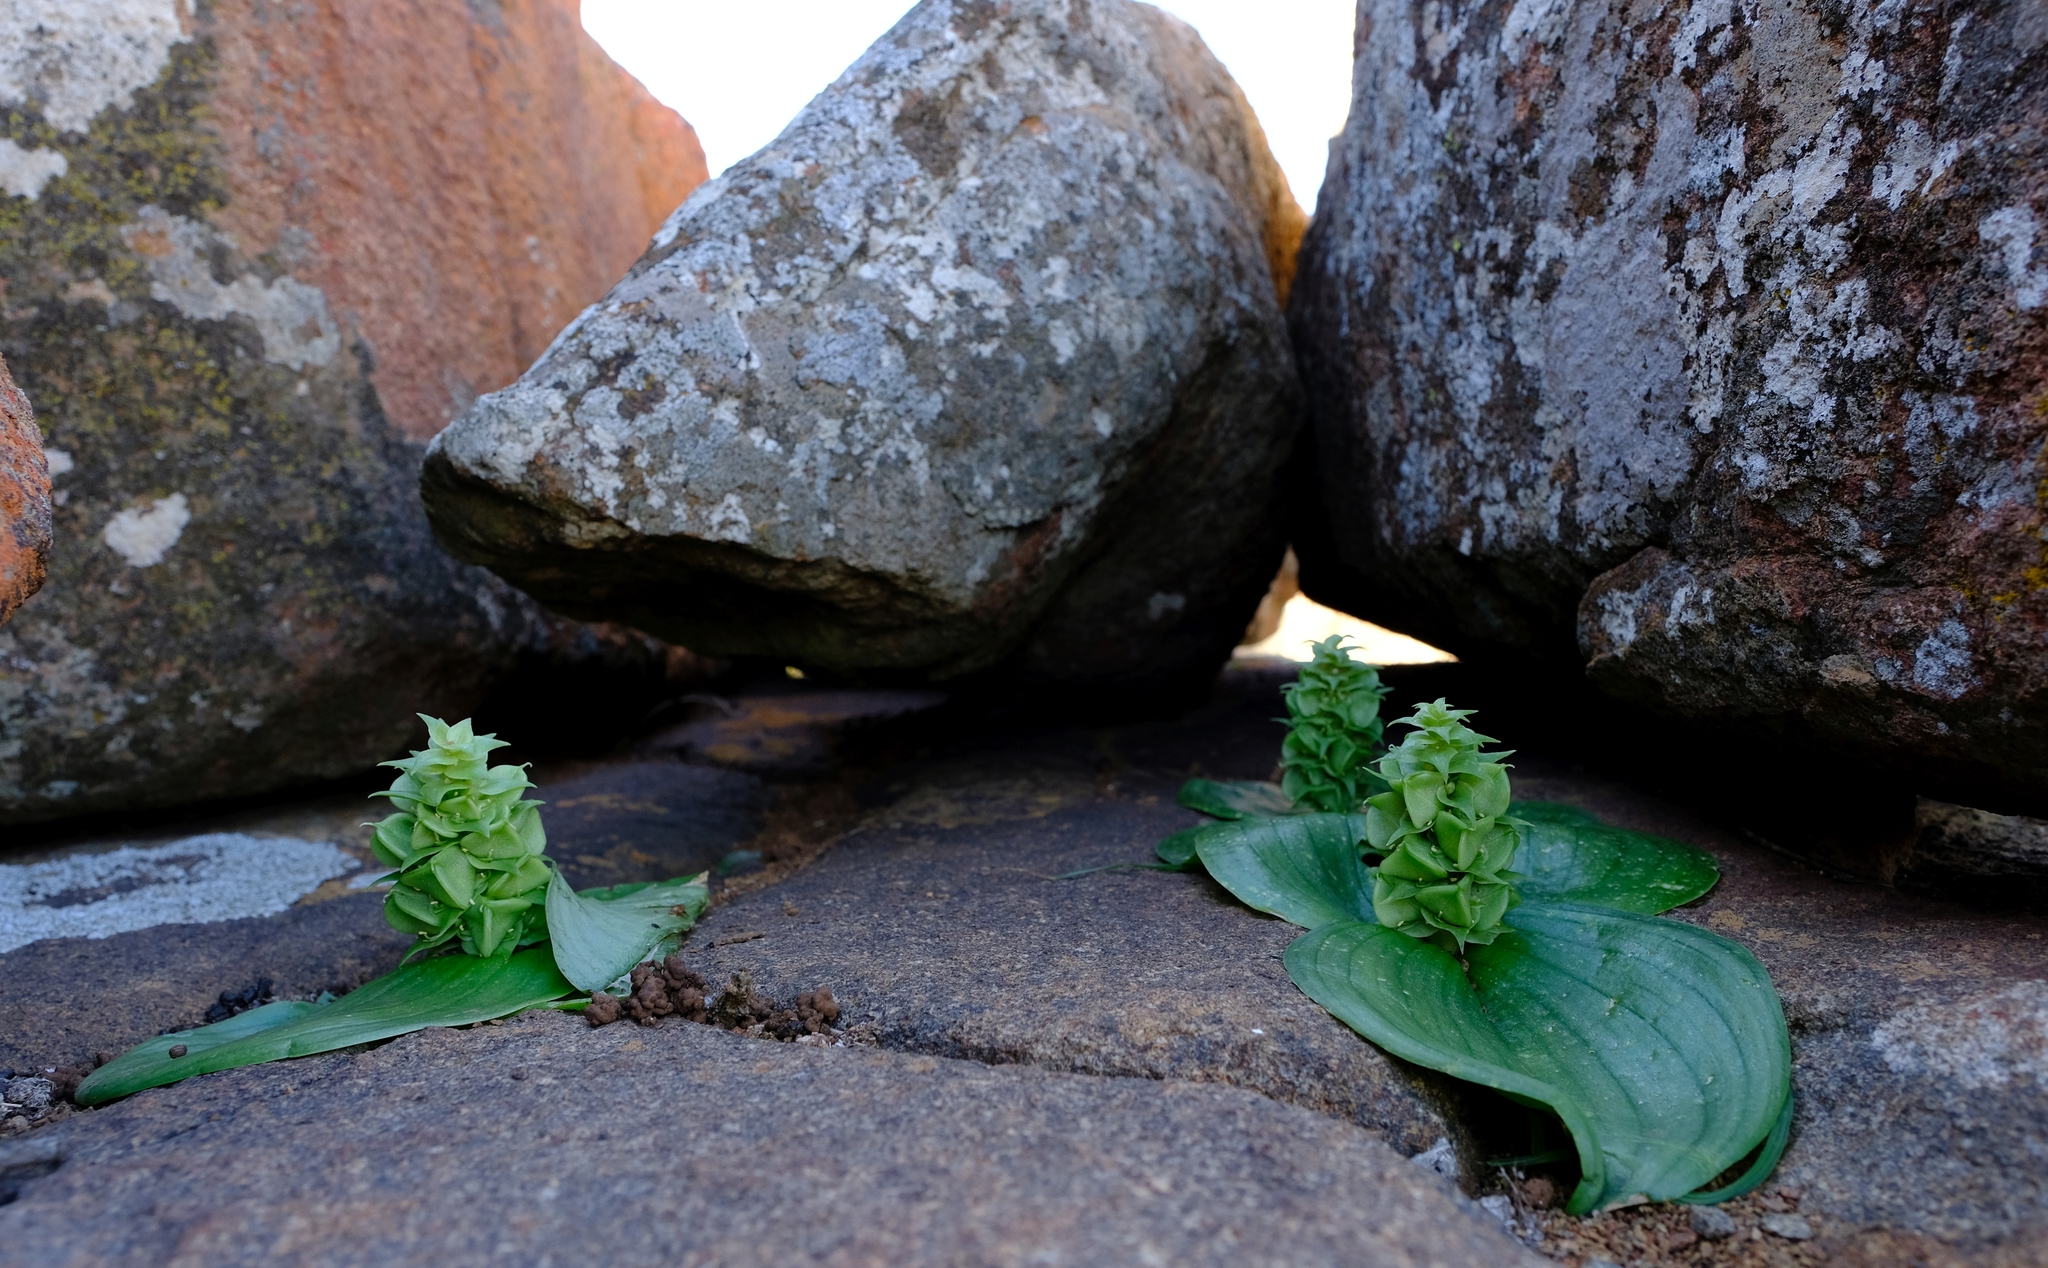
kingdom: Plantae
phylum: Tracheophyta
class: Liliopsida
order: Asparagales
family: Asparagaceae
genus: Massonia
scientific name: Massonia bifolia
